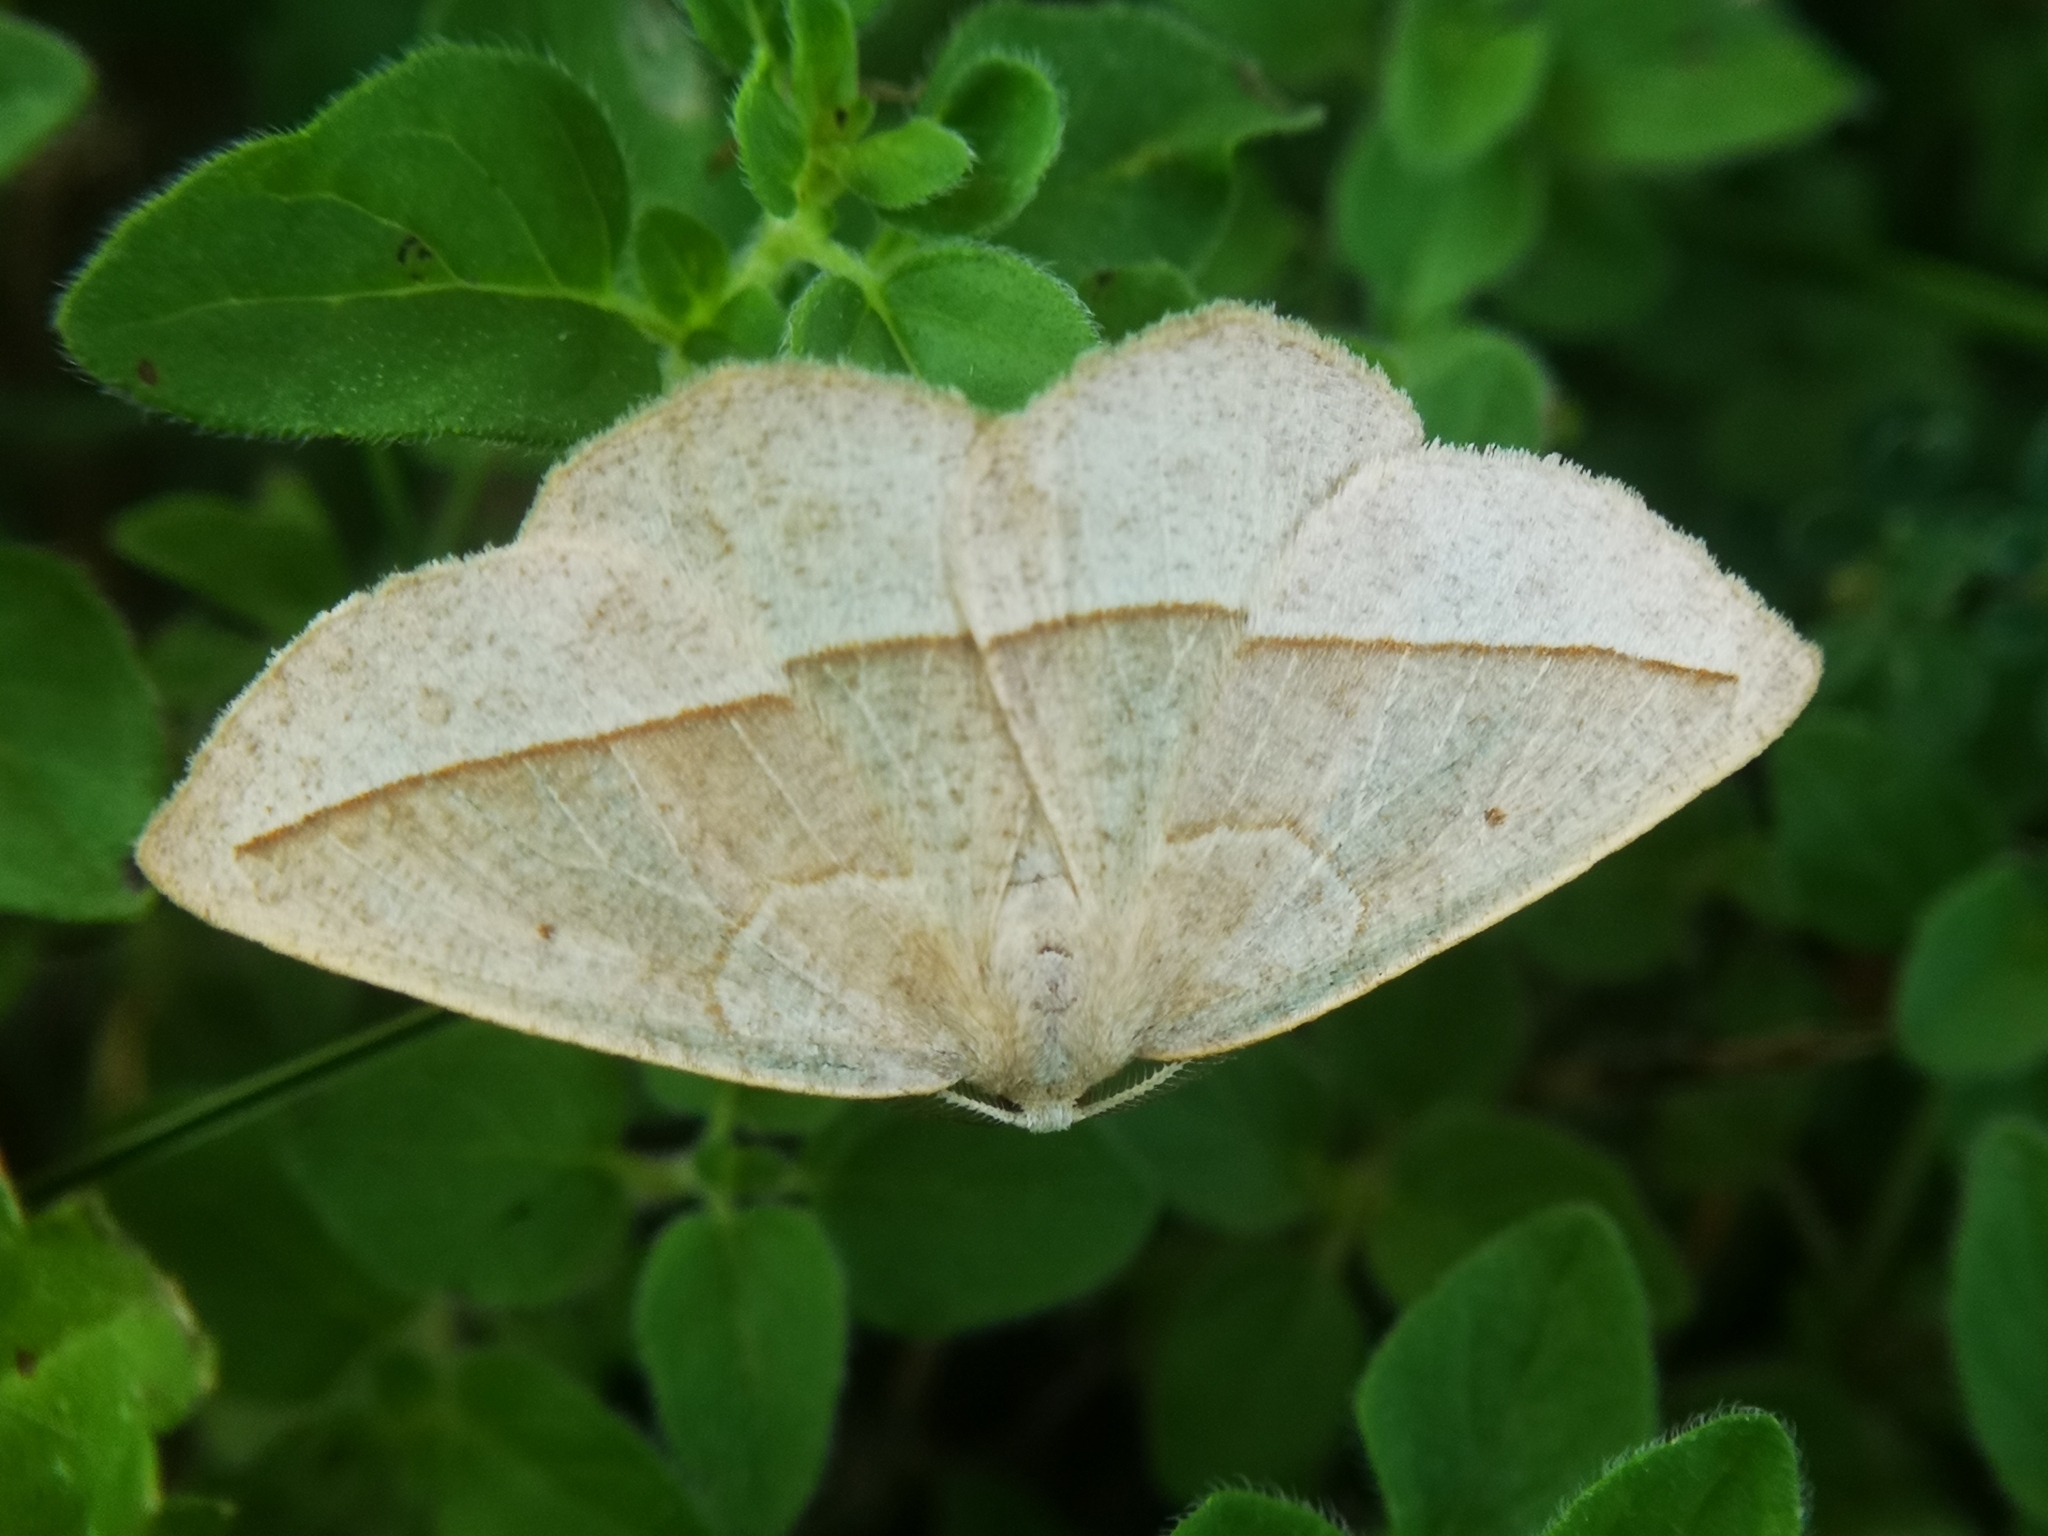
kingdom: Animalia
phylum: Arthropoda
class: Insecta
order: Lepidoptera
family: Geometridae
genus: Eusarca
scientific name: Eusarca confusaria
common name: Confused eusarca
